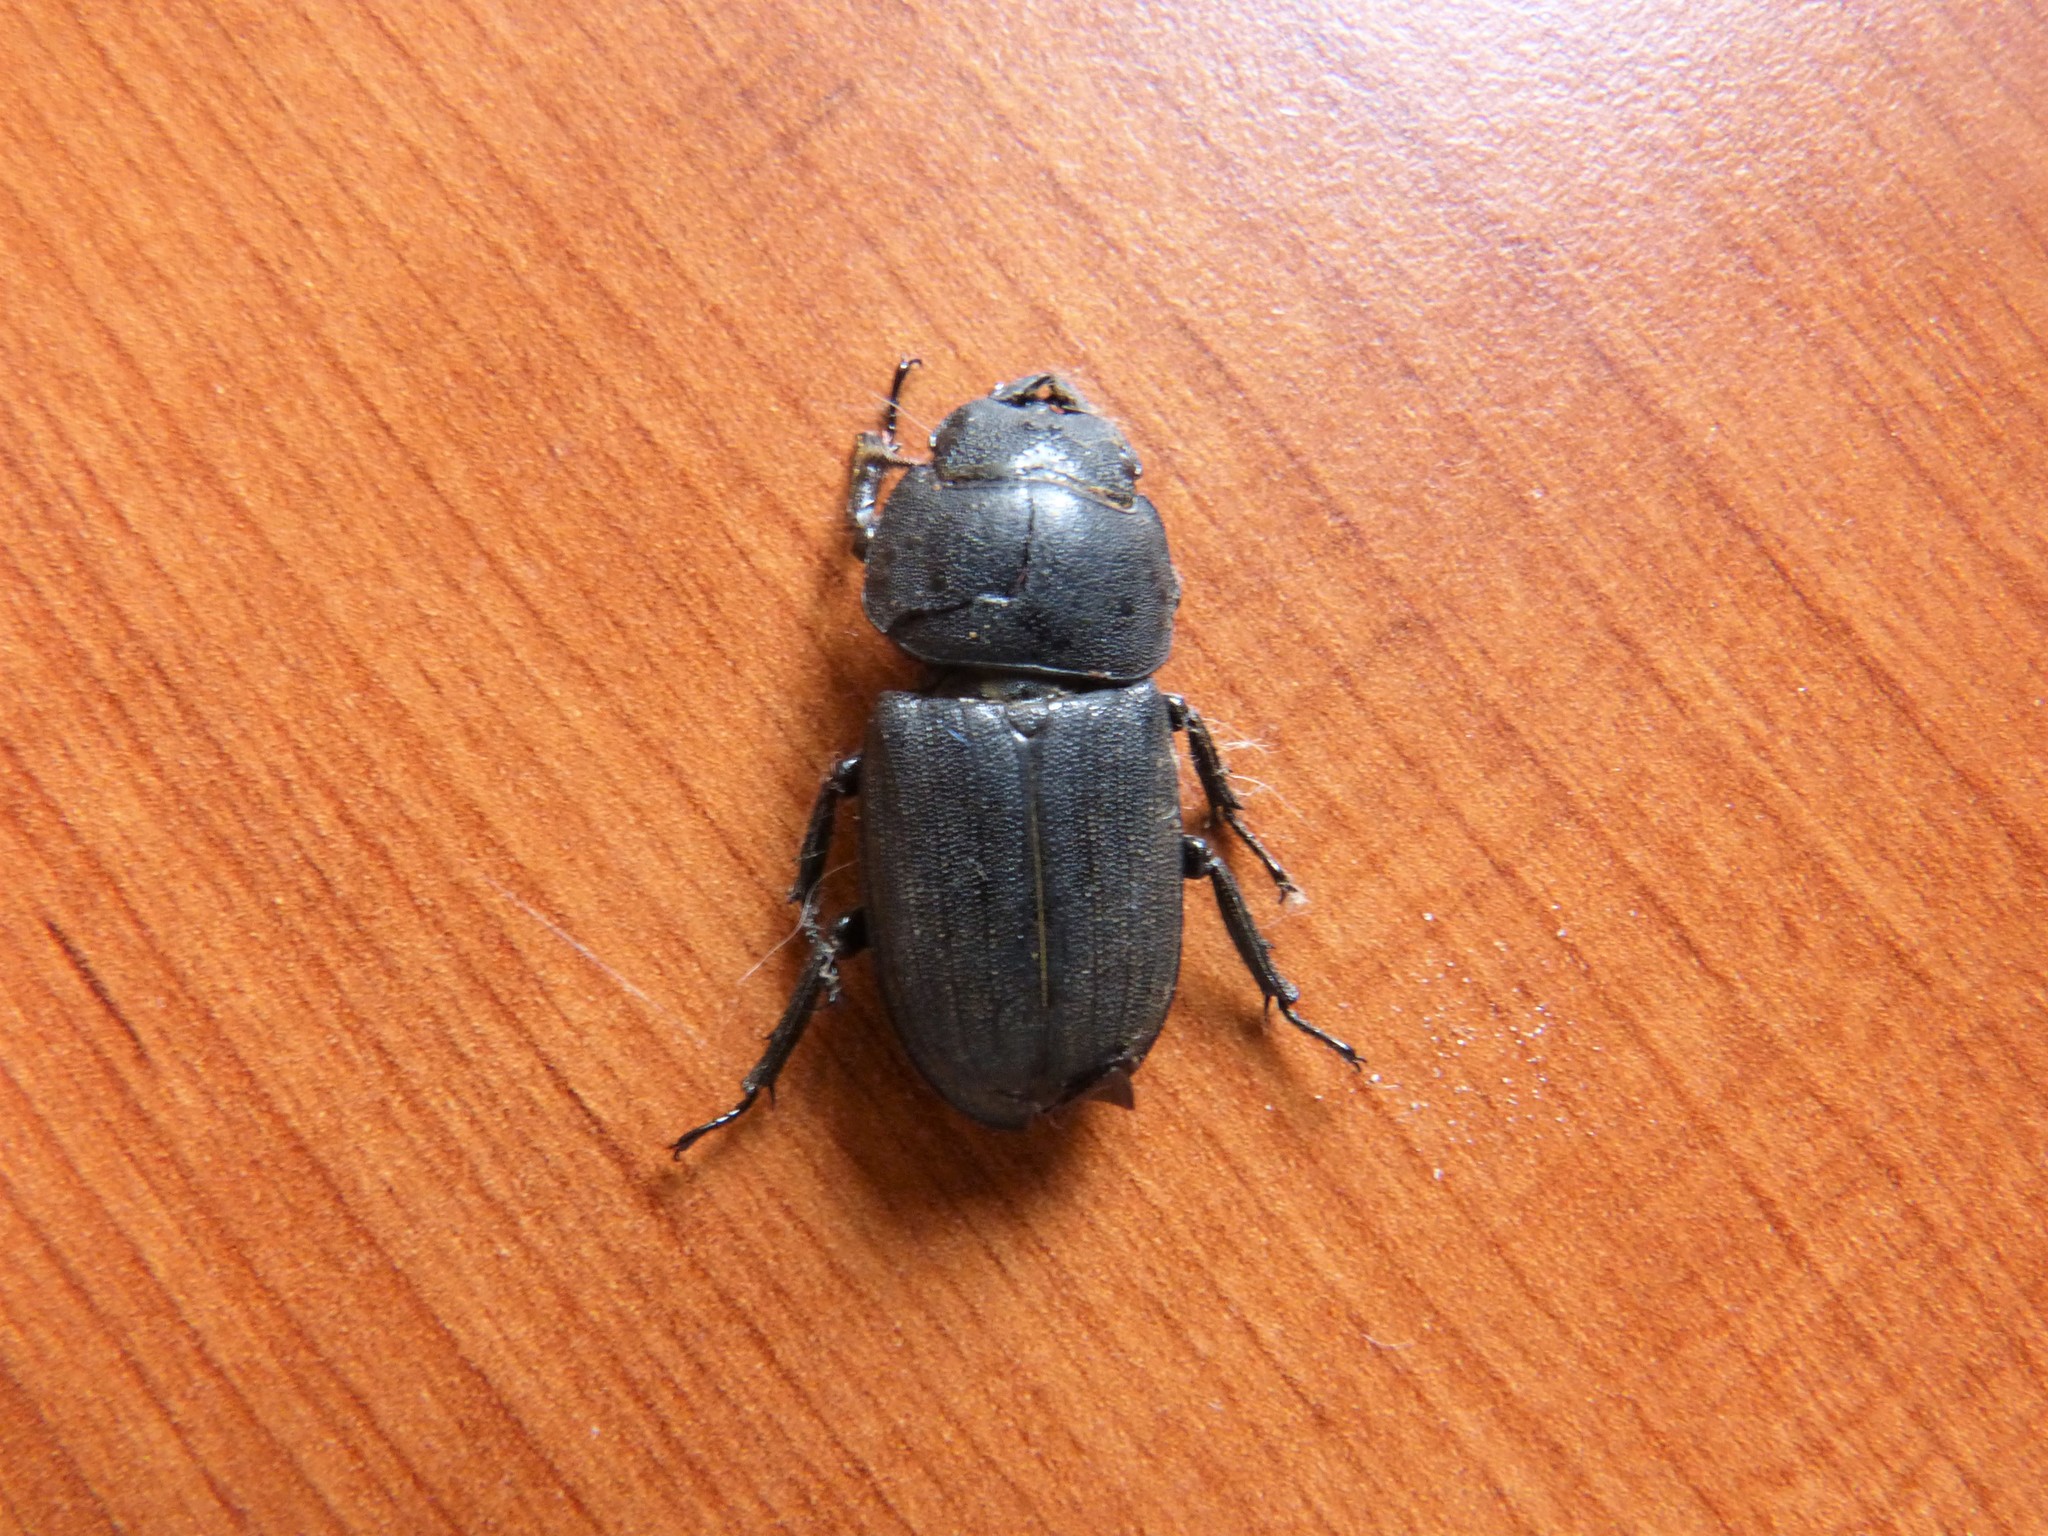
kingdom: Animalia
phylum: Arthropoda
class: Insecta
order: Coleoptera
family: Lucanidae
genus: Dorcus
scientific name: Dorcus parallelipipedus
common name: Lesser stag beetle
